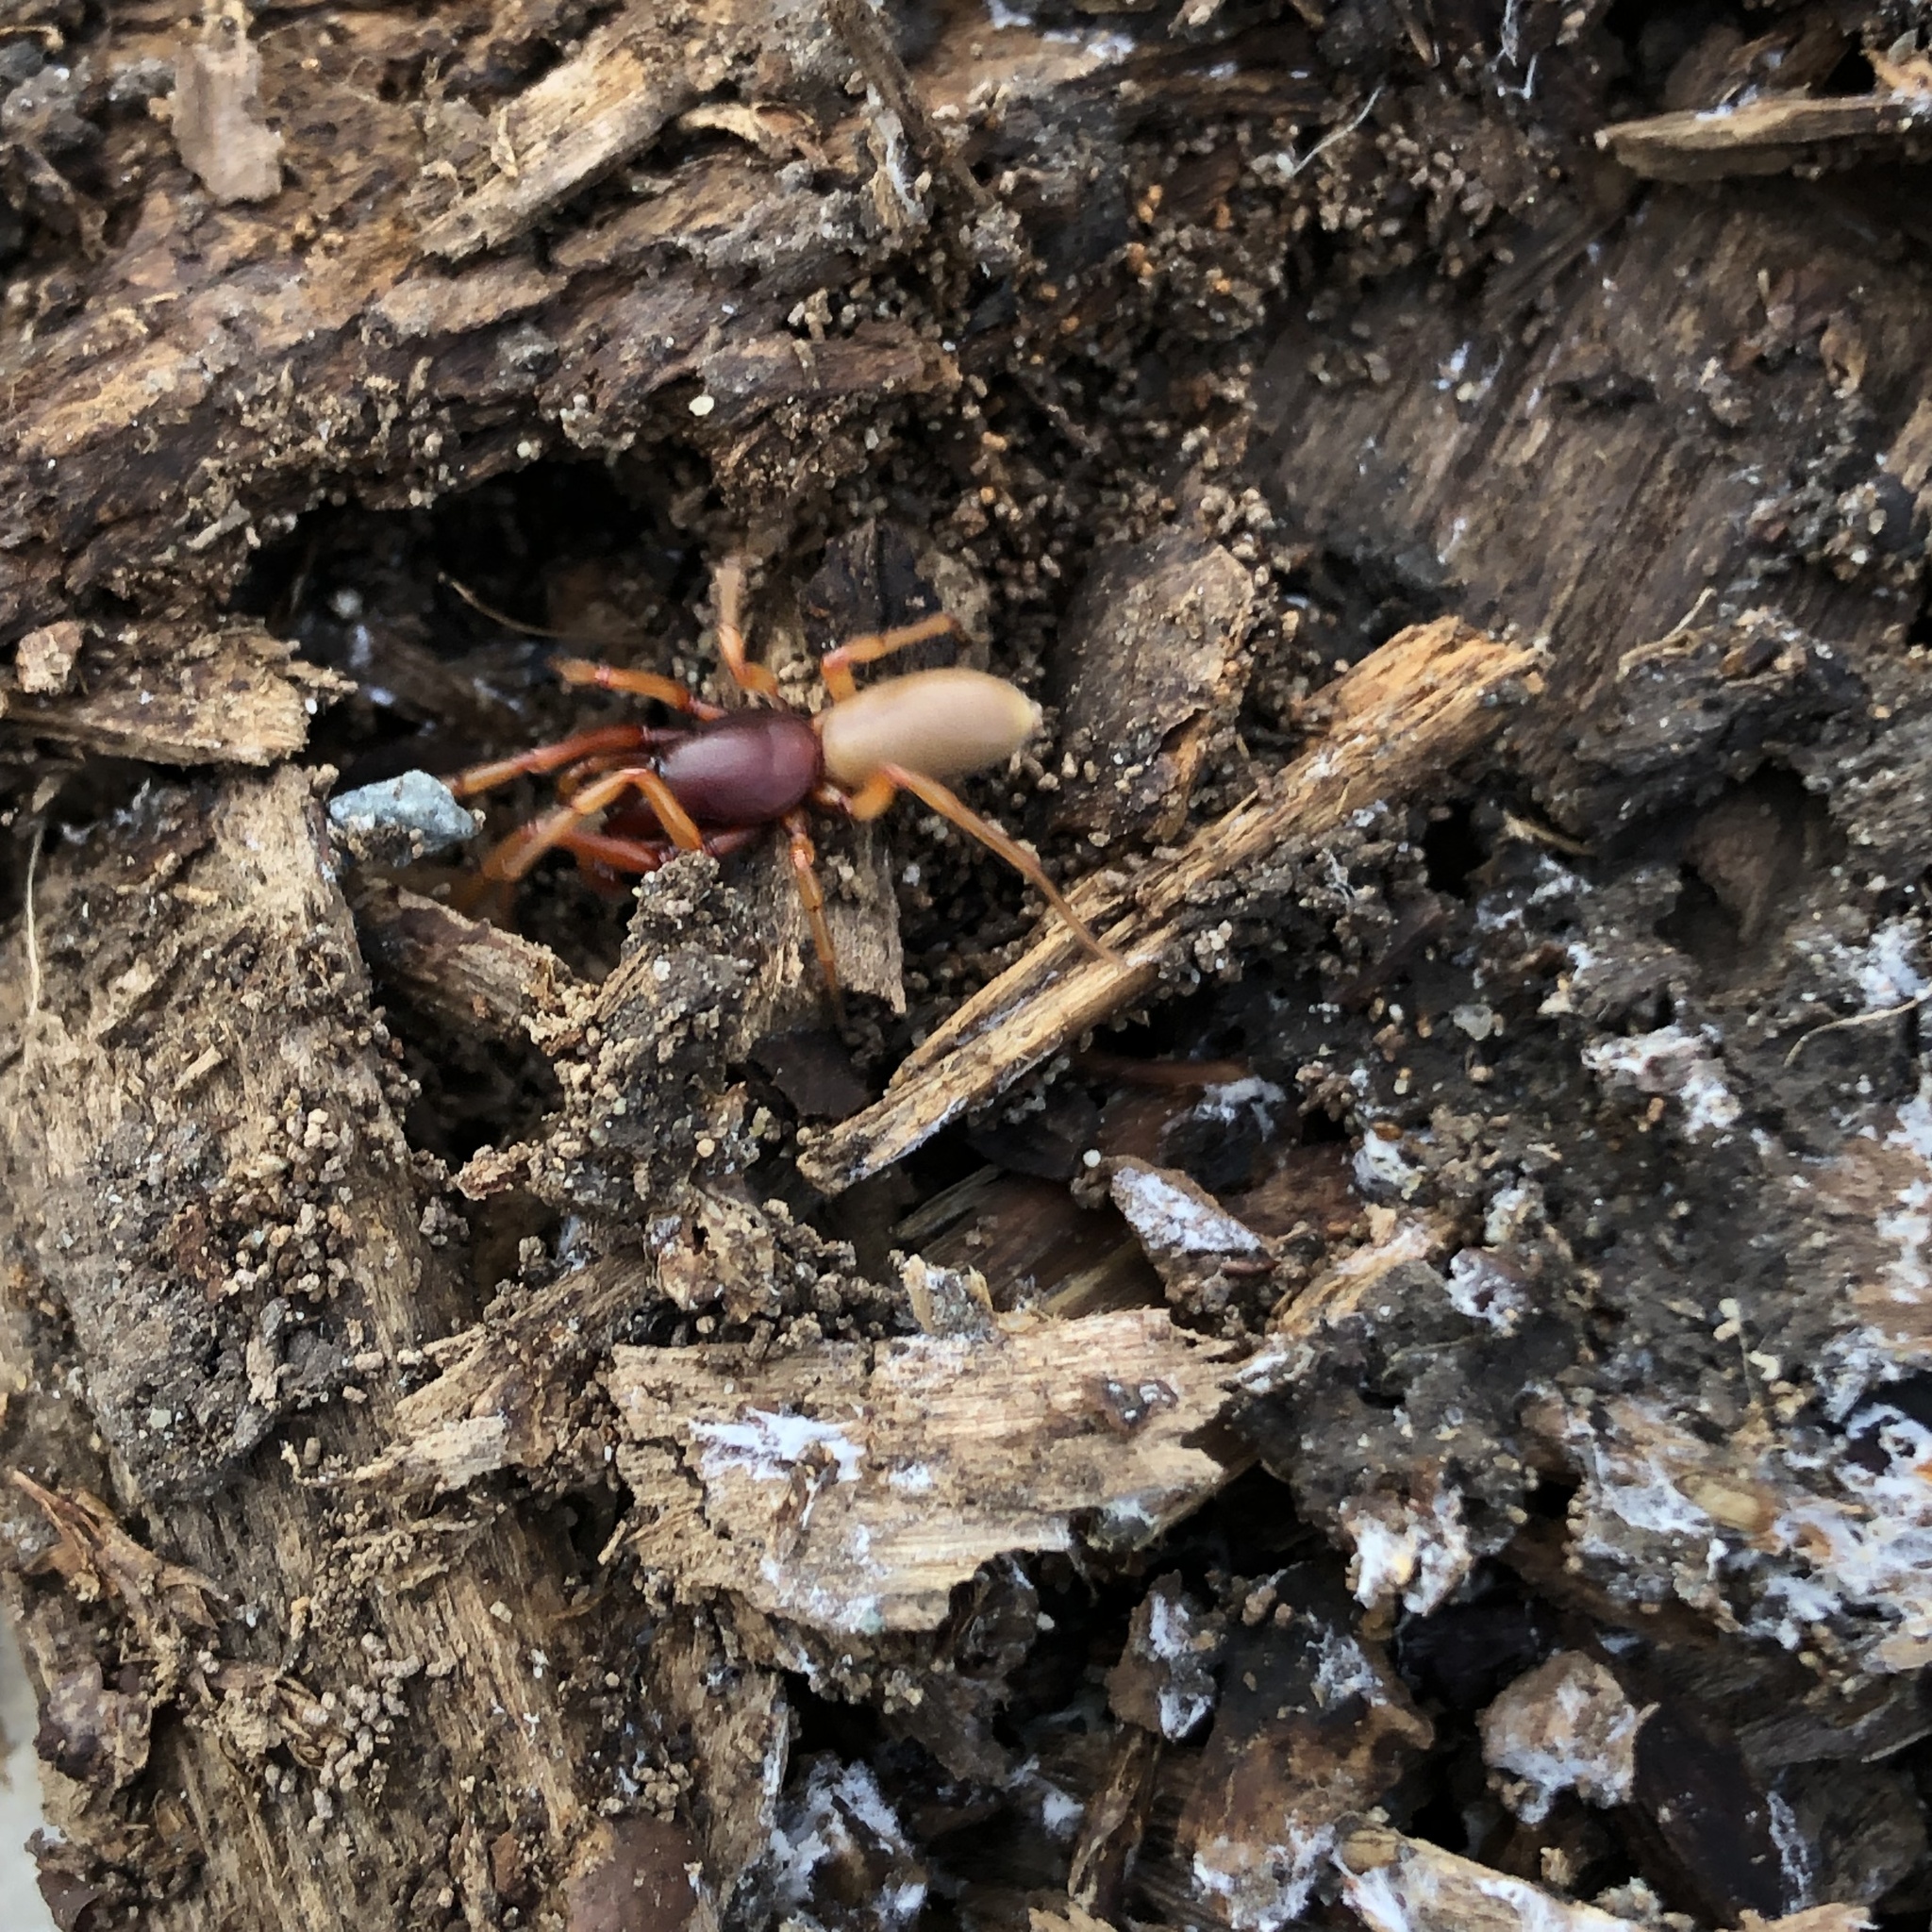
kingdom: Animalia
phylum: Arthropoda
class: Arachnida
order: Araneae
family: Dysderidae
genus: Dysdera
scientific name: Dysdera crocata
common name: Woodlouse spider
